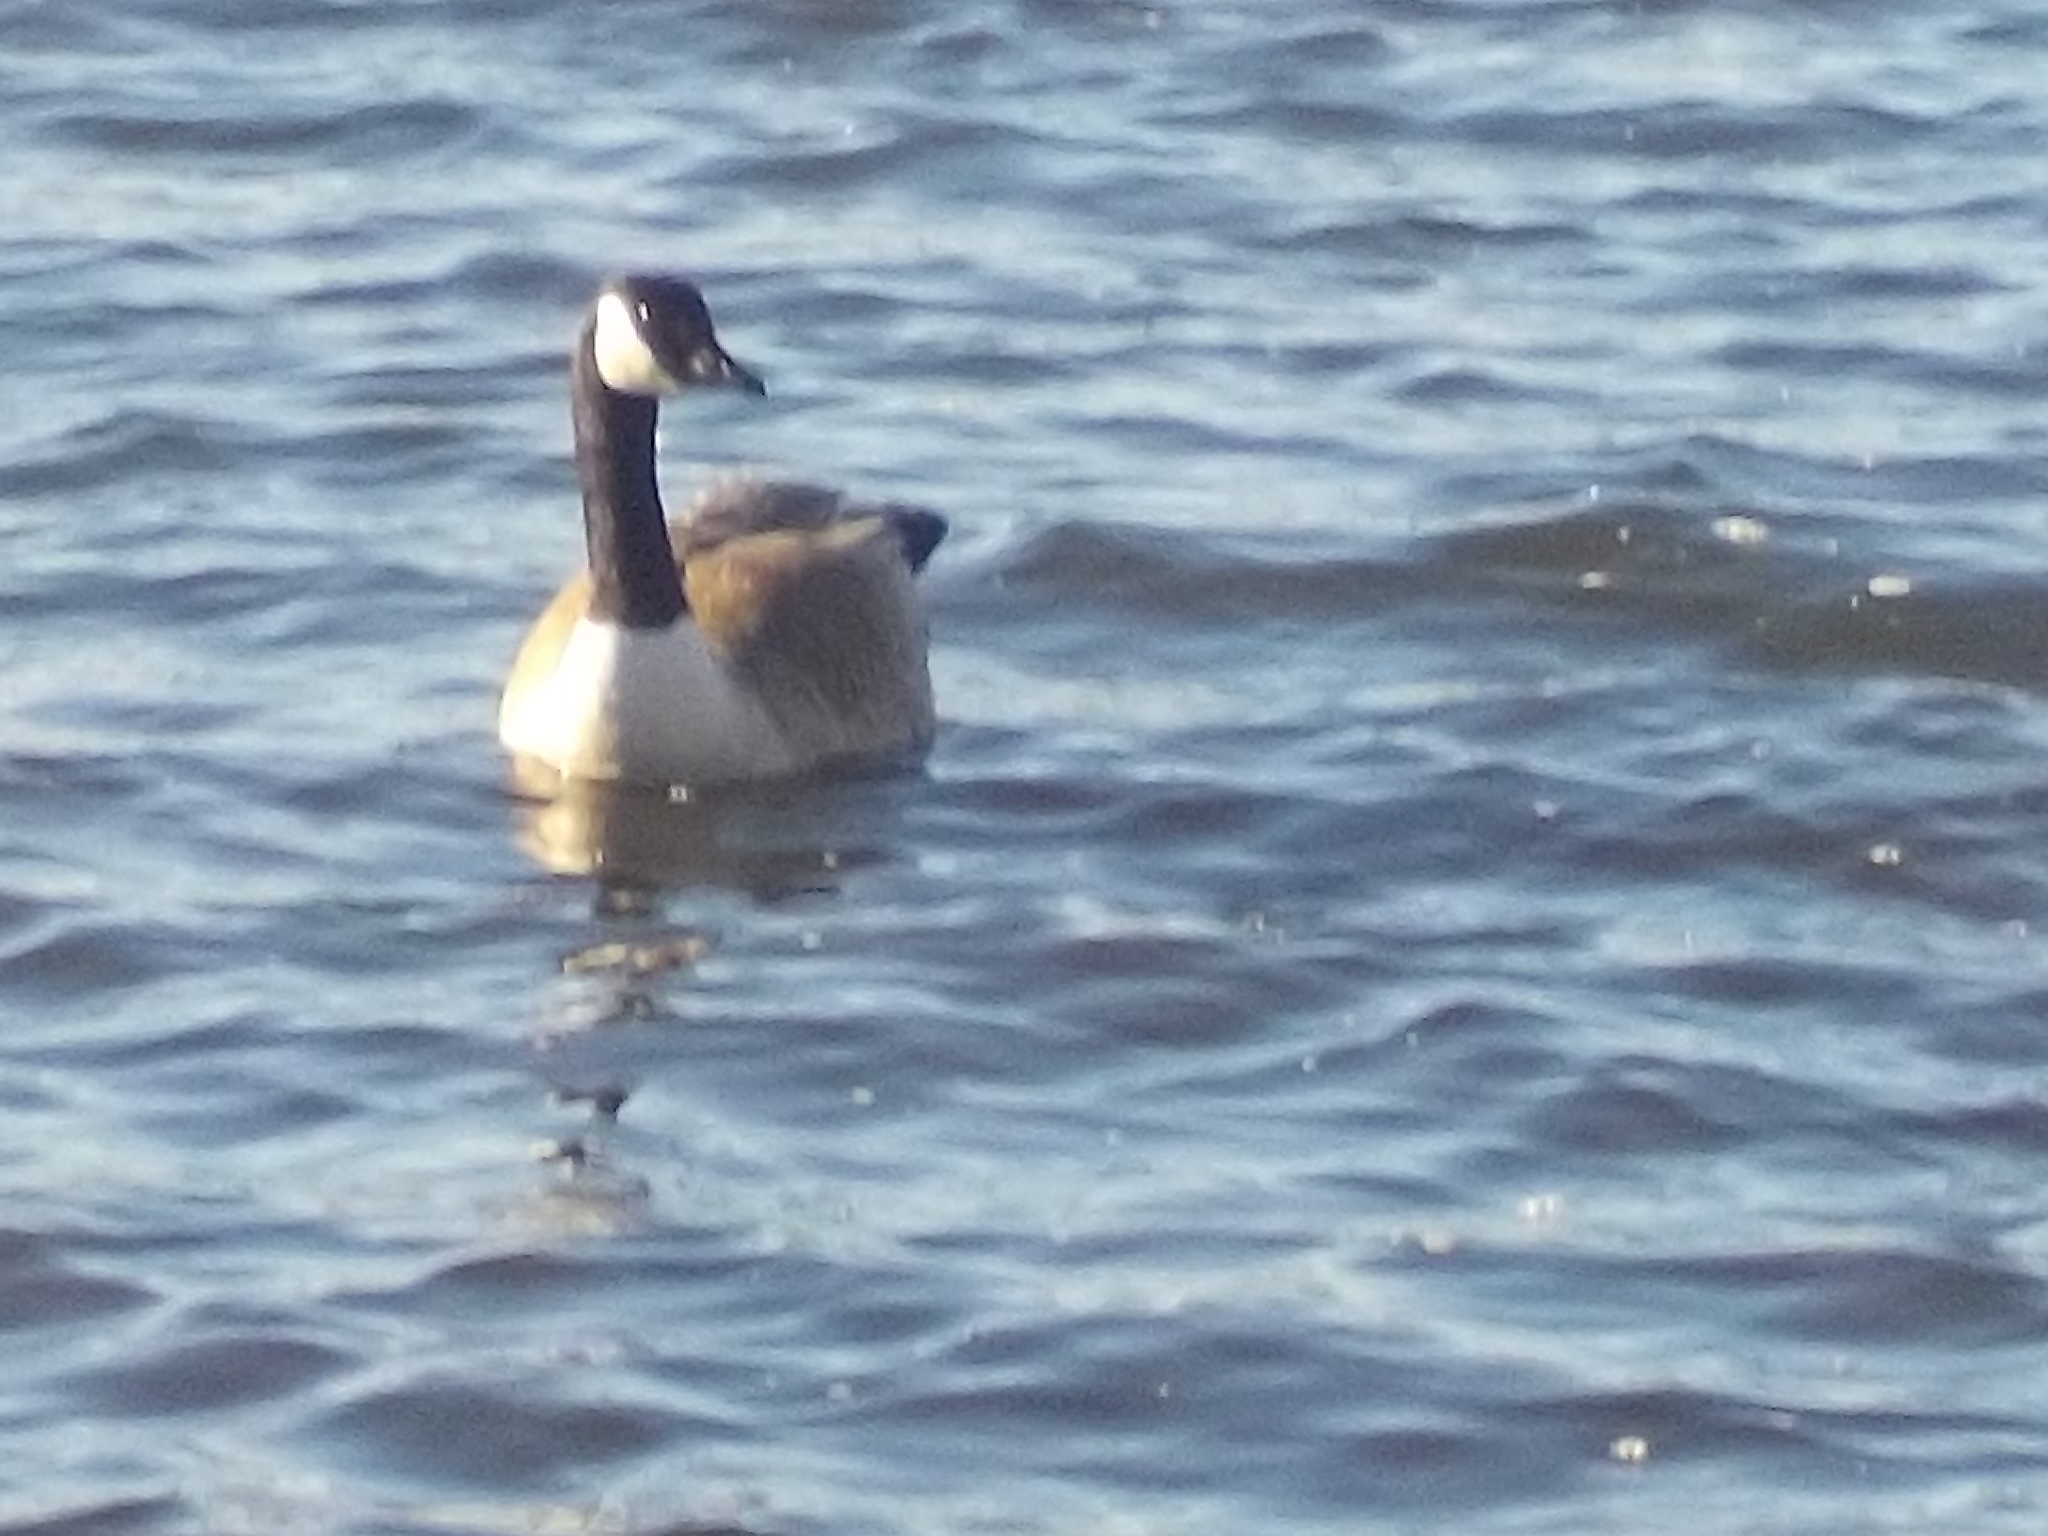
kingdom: Animalia
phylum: Chordata
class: Aves
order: Anseriformes
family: Anatidae
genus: Branta
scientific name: Branta canadensis
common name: Canada goose
